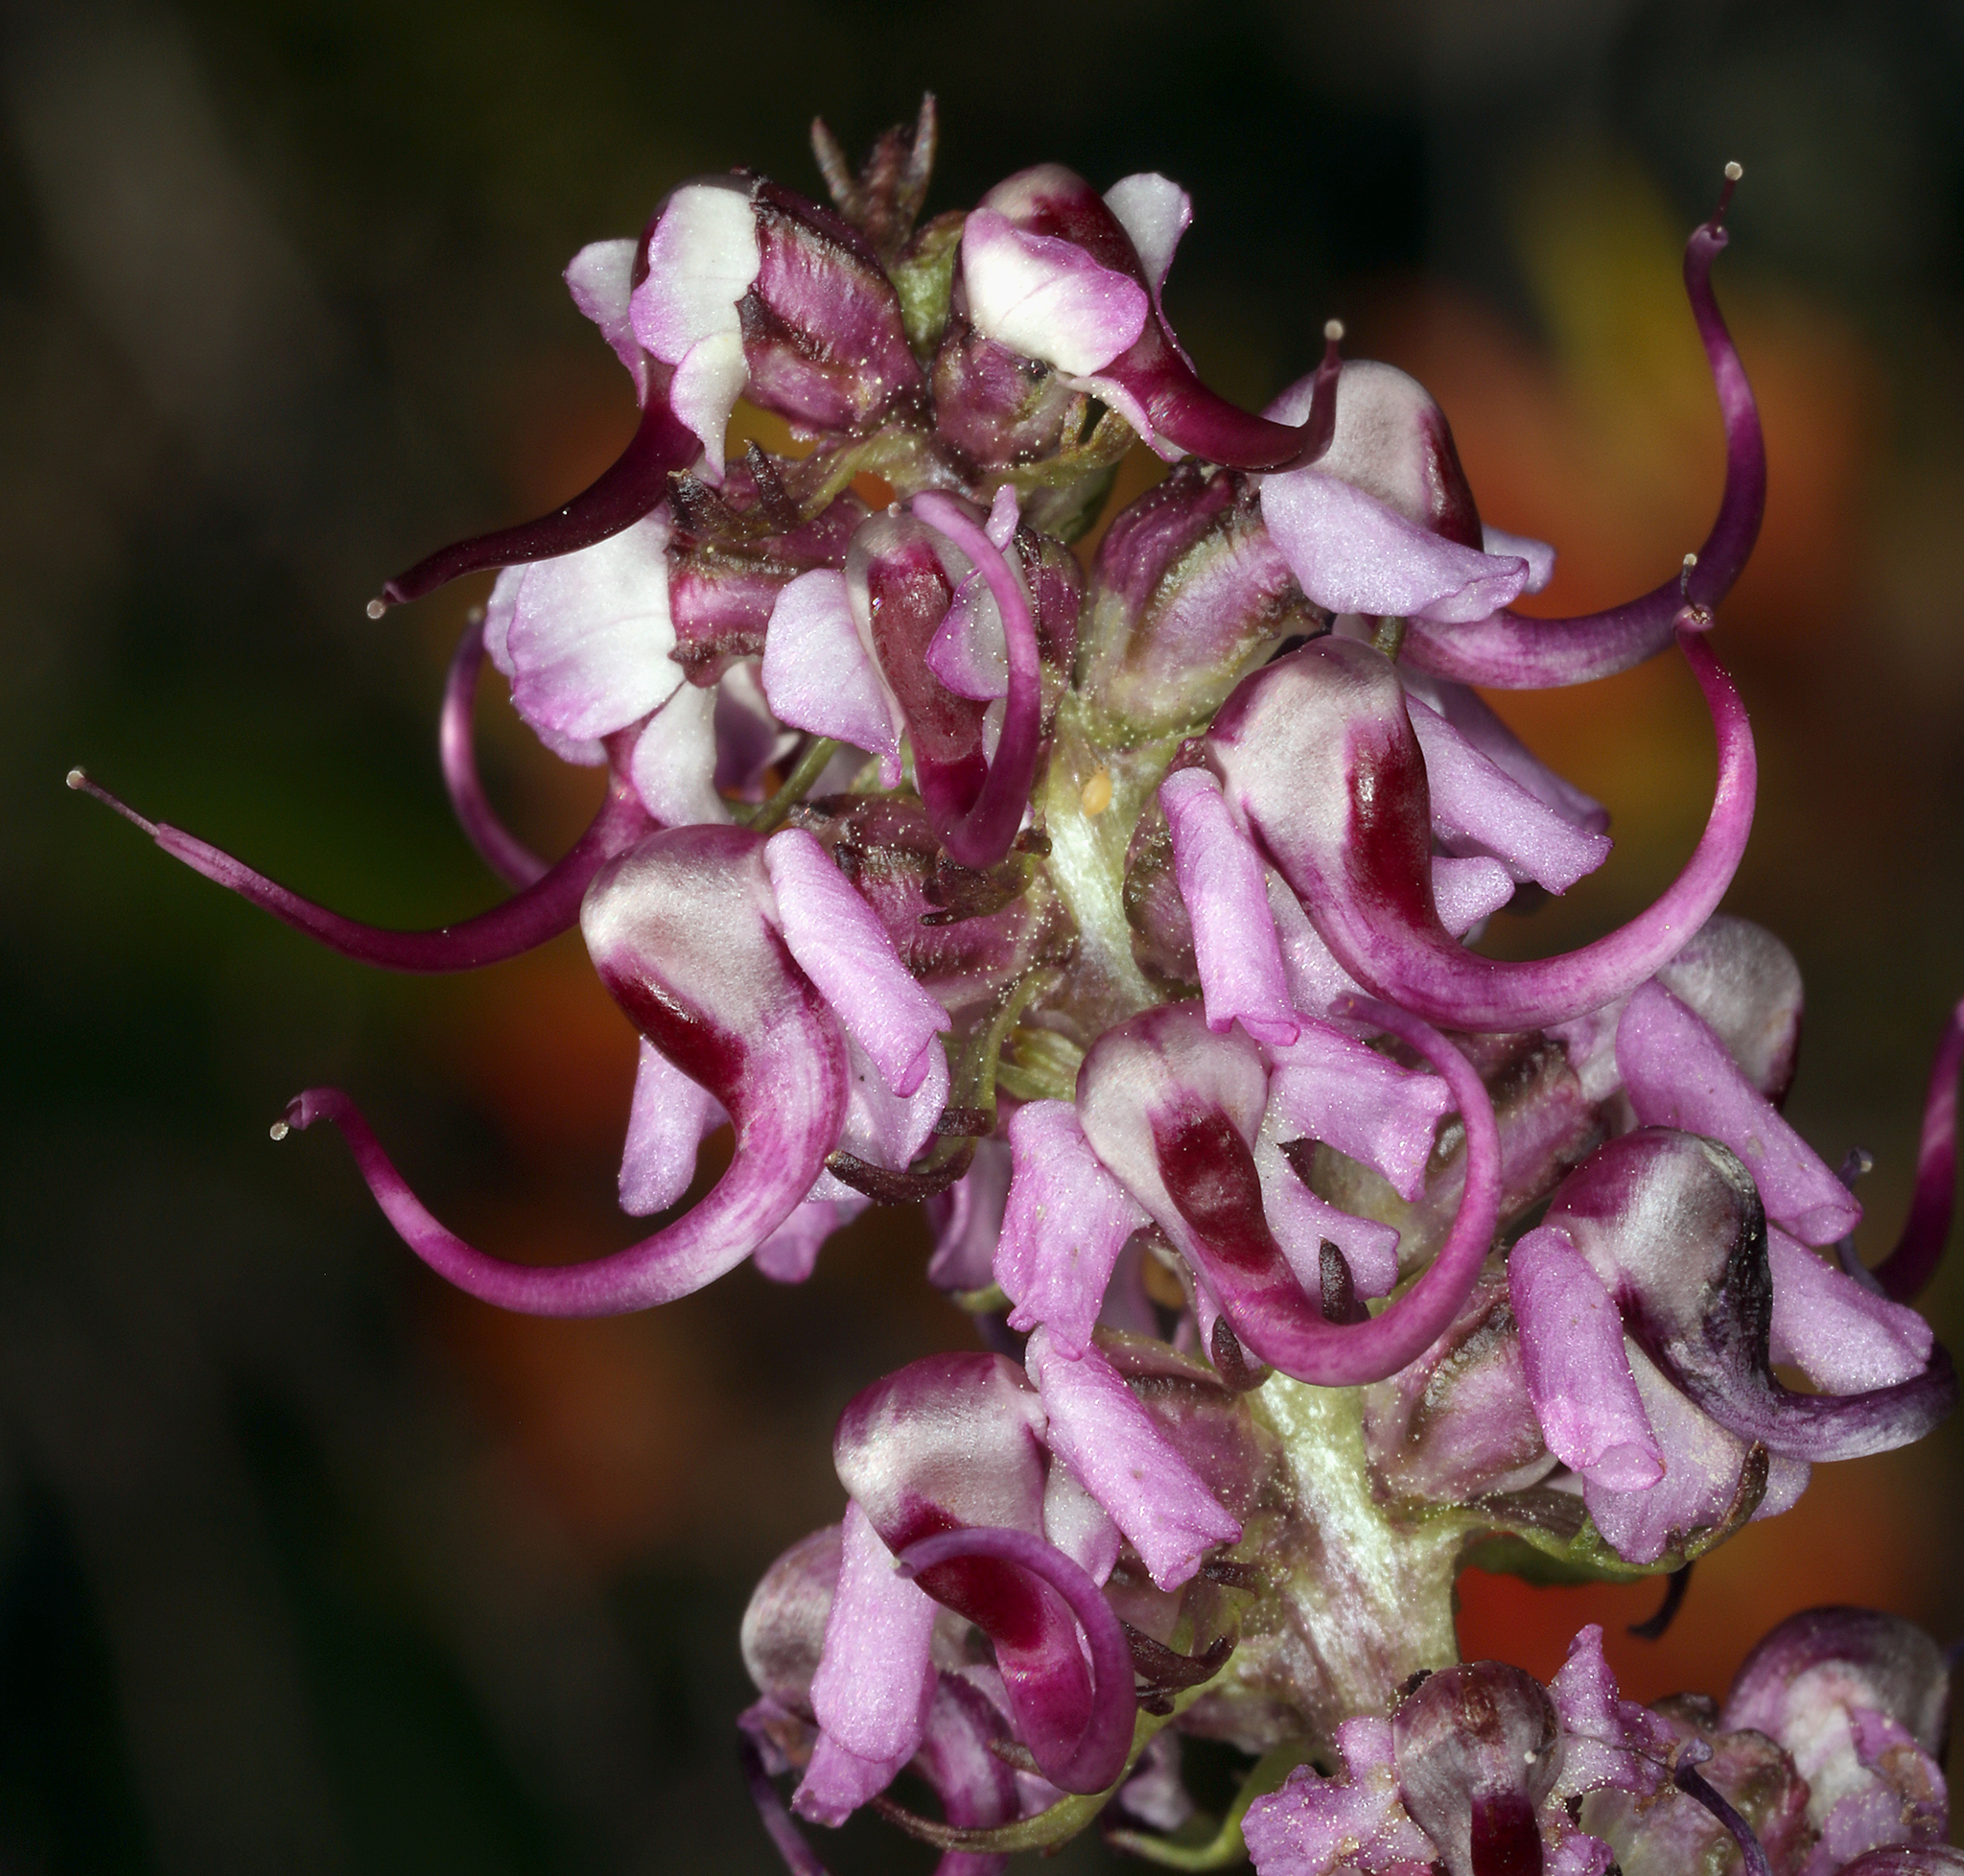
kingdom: Plantae
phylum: Tracheophyta
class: Magnoliopsida
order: Lamiales
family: Orobanchaceae
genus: Pedicularis
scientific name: Pedicularis groenlandica
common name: Elephant's-head
